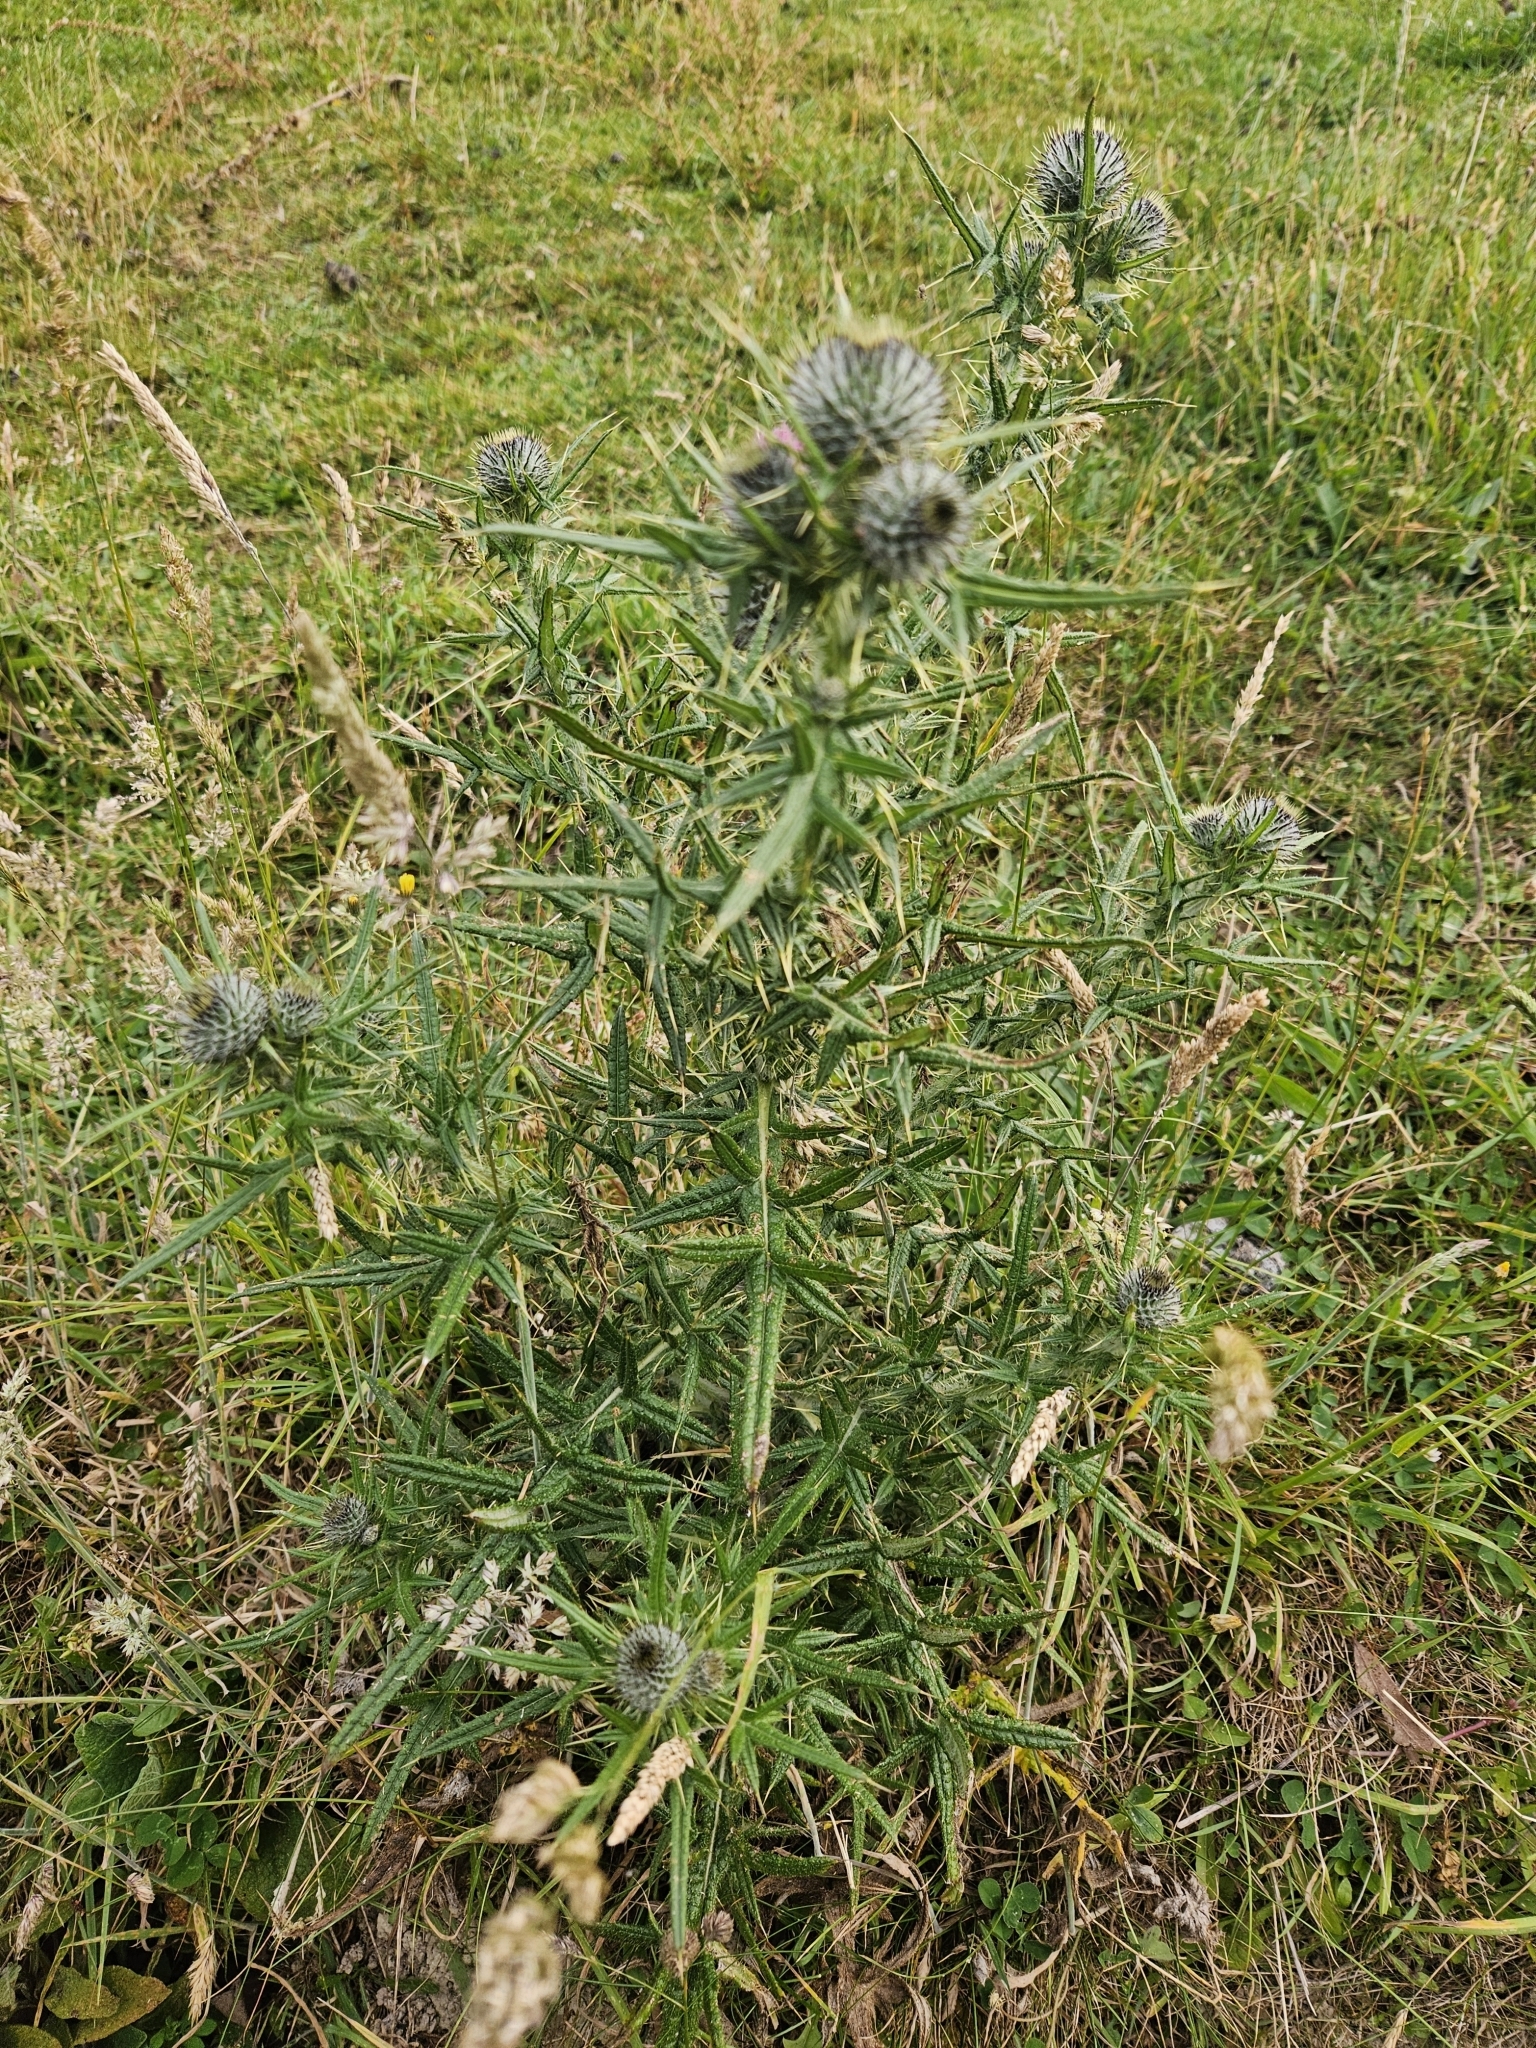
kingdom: Plantae
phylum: Tracheophyta
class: Magnoliopsida
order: Asterales
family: Asteraceae
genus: Cirsium
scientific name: Cirsium vulgare
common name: Bull thistle
